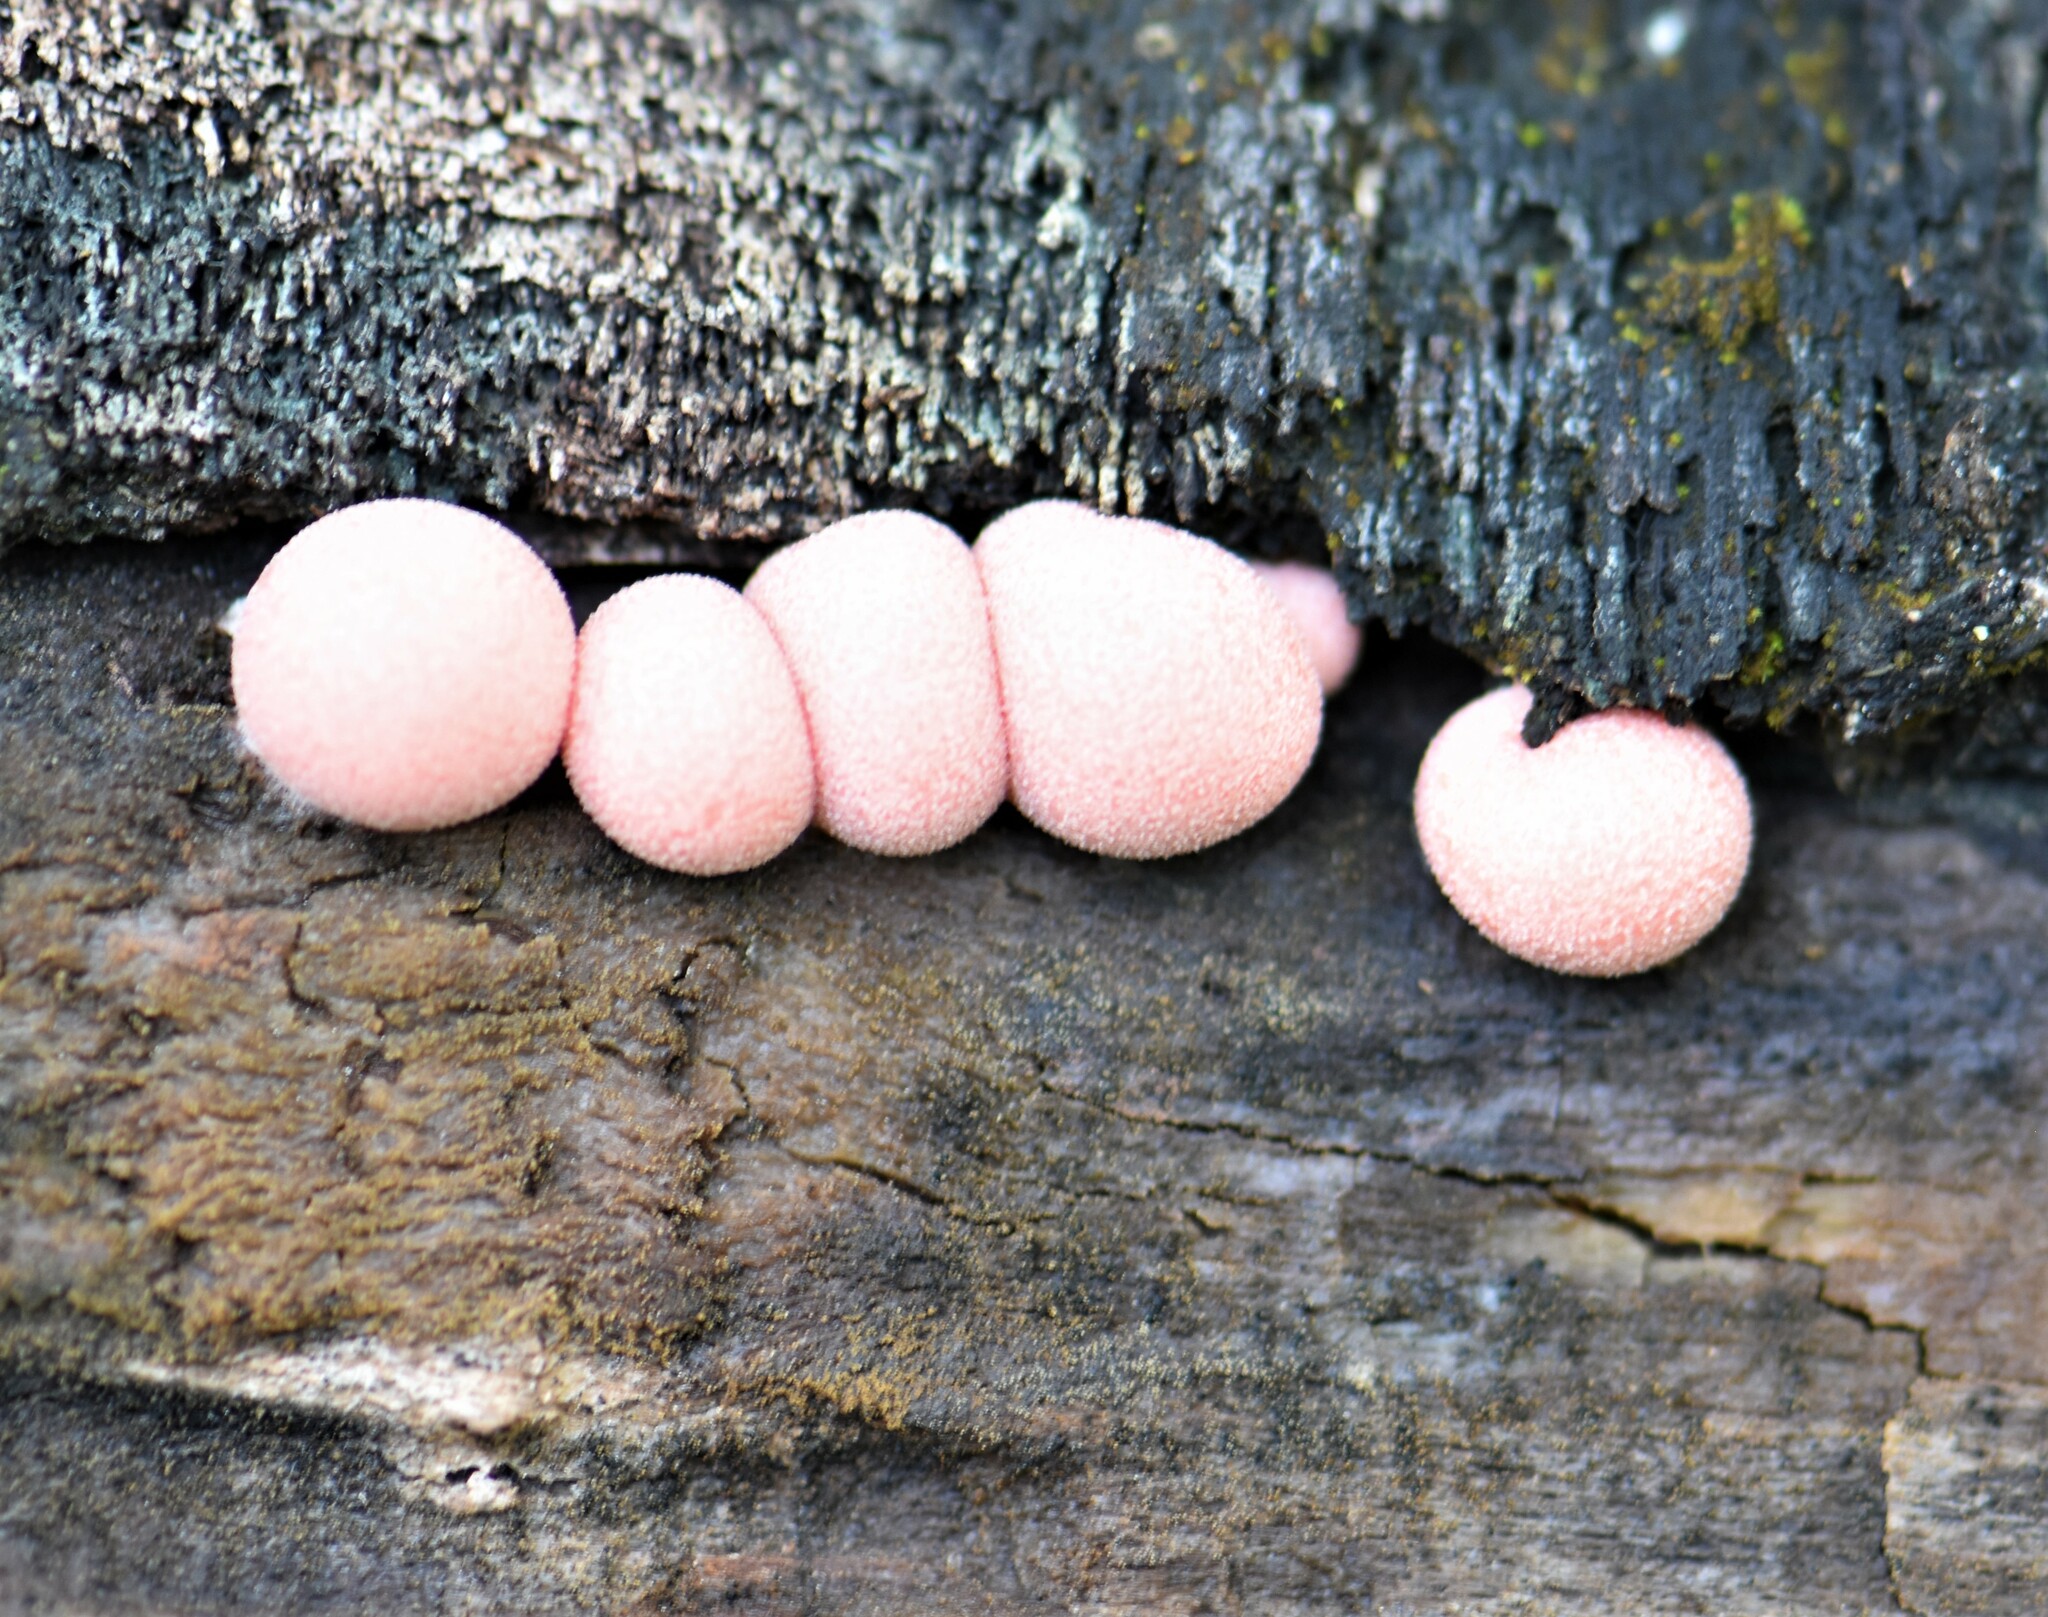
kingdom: Protozoa
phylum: Mycetozoa
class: Myxomycetes
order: Cribrariales
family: Tubiferaceae
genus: Lycogala
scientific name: Lycogala epidendrum
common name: Wolf's milk
